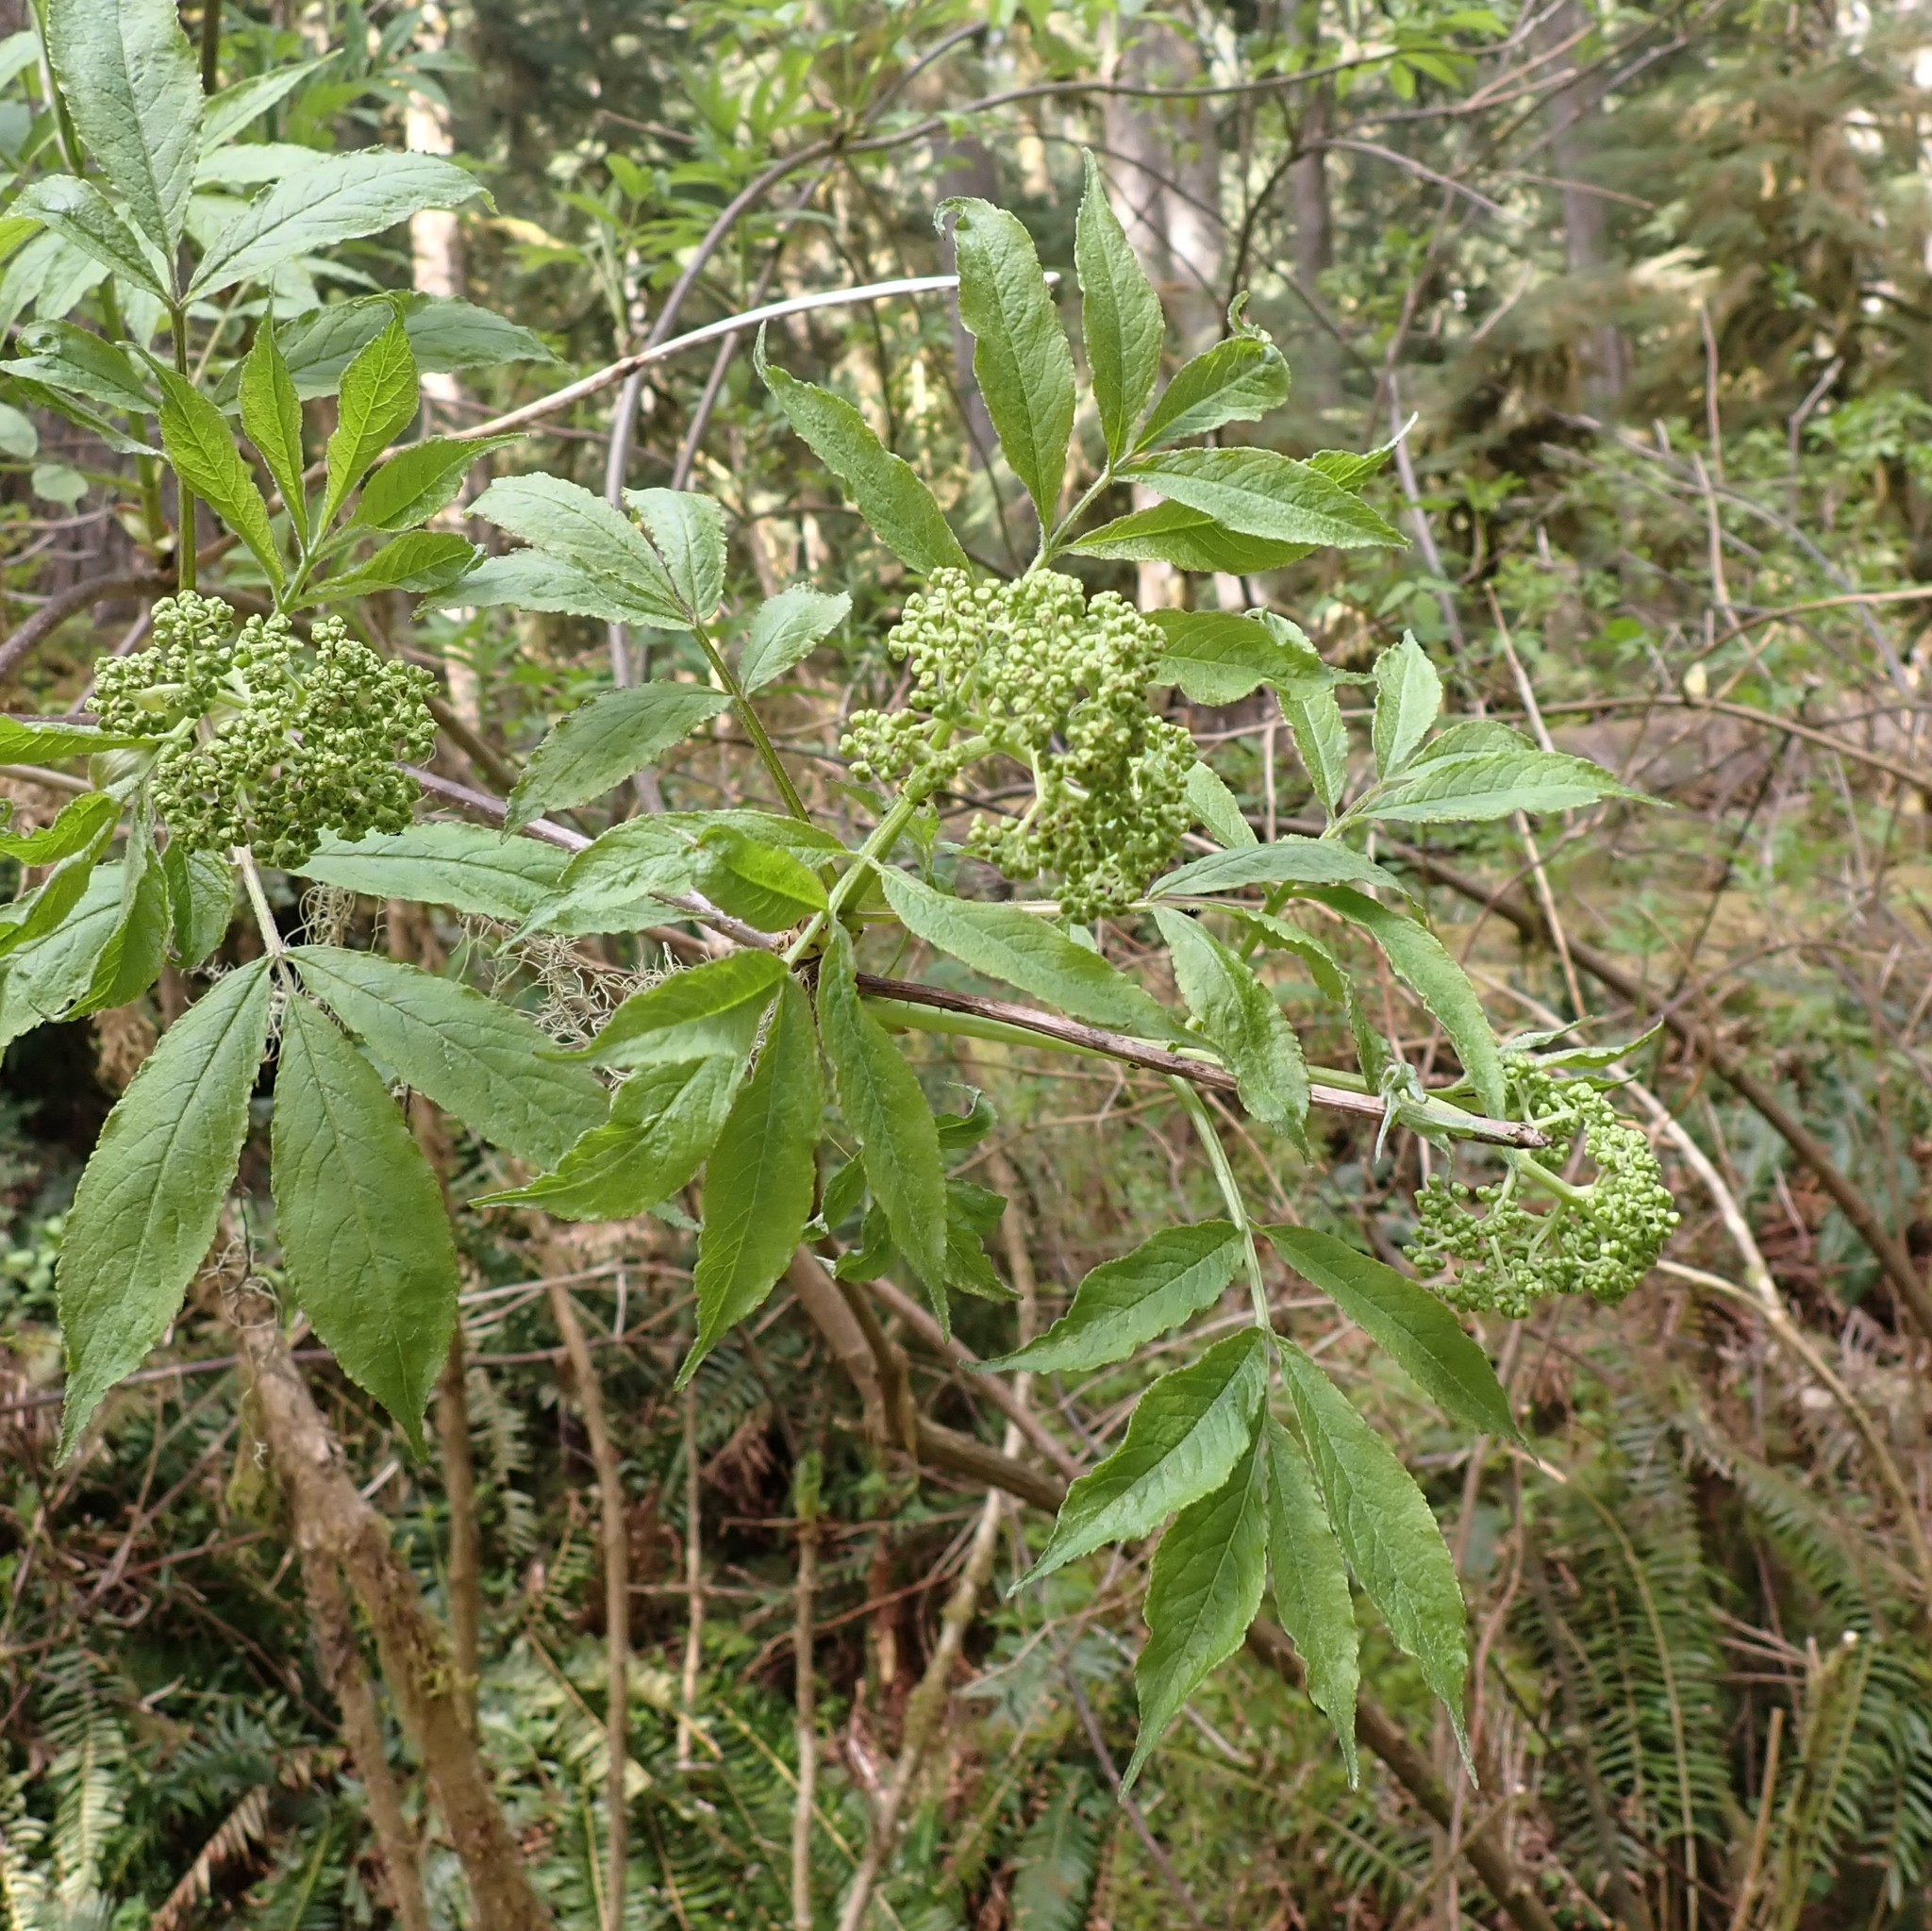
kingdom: Plantae
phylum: Tracheophyta
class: Magnoliopsida
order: Dipsacales
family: Viburnaceae
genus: Sambucus
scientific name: Sambucus racemosa
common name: Red-berried elder
